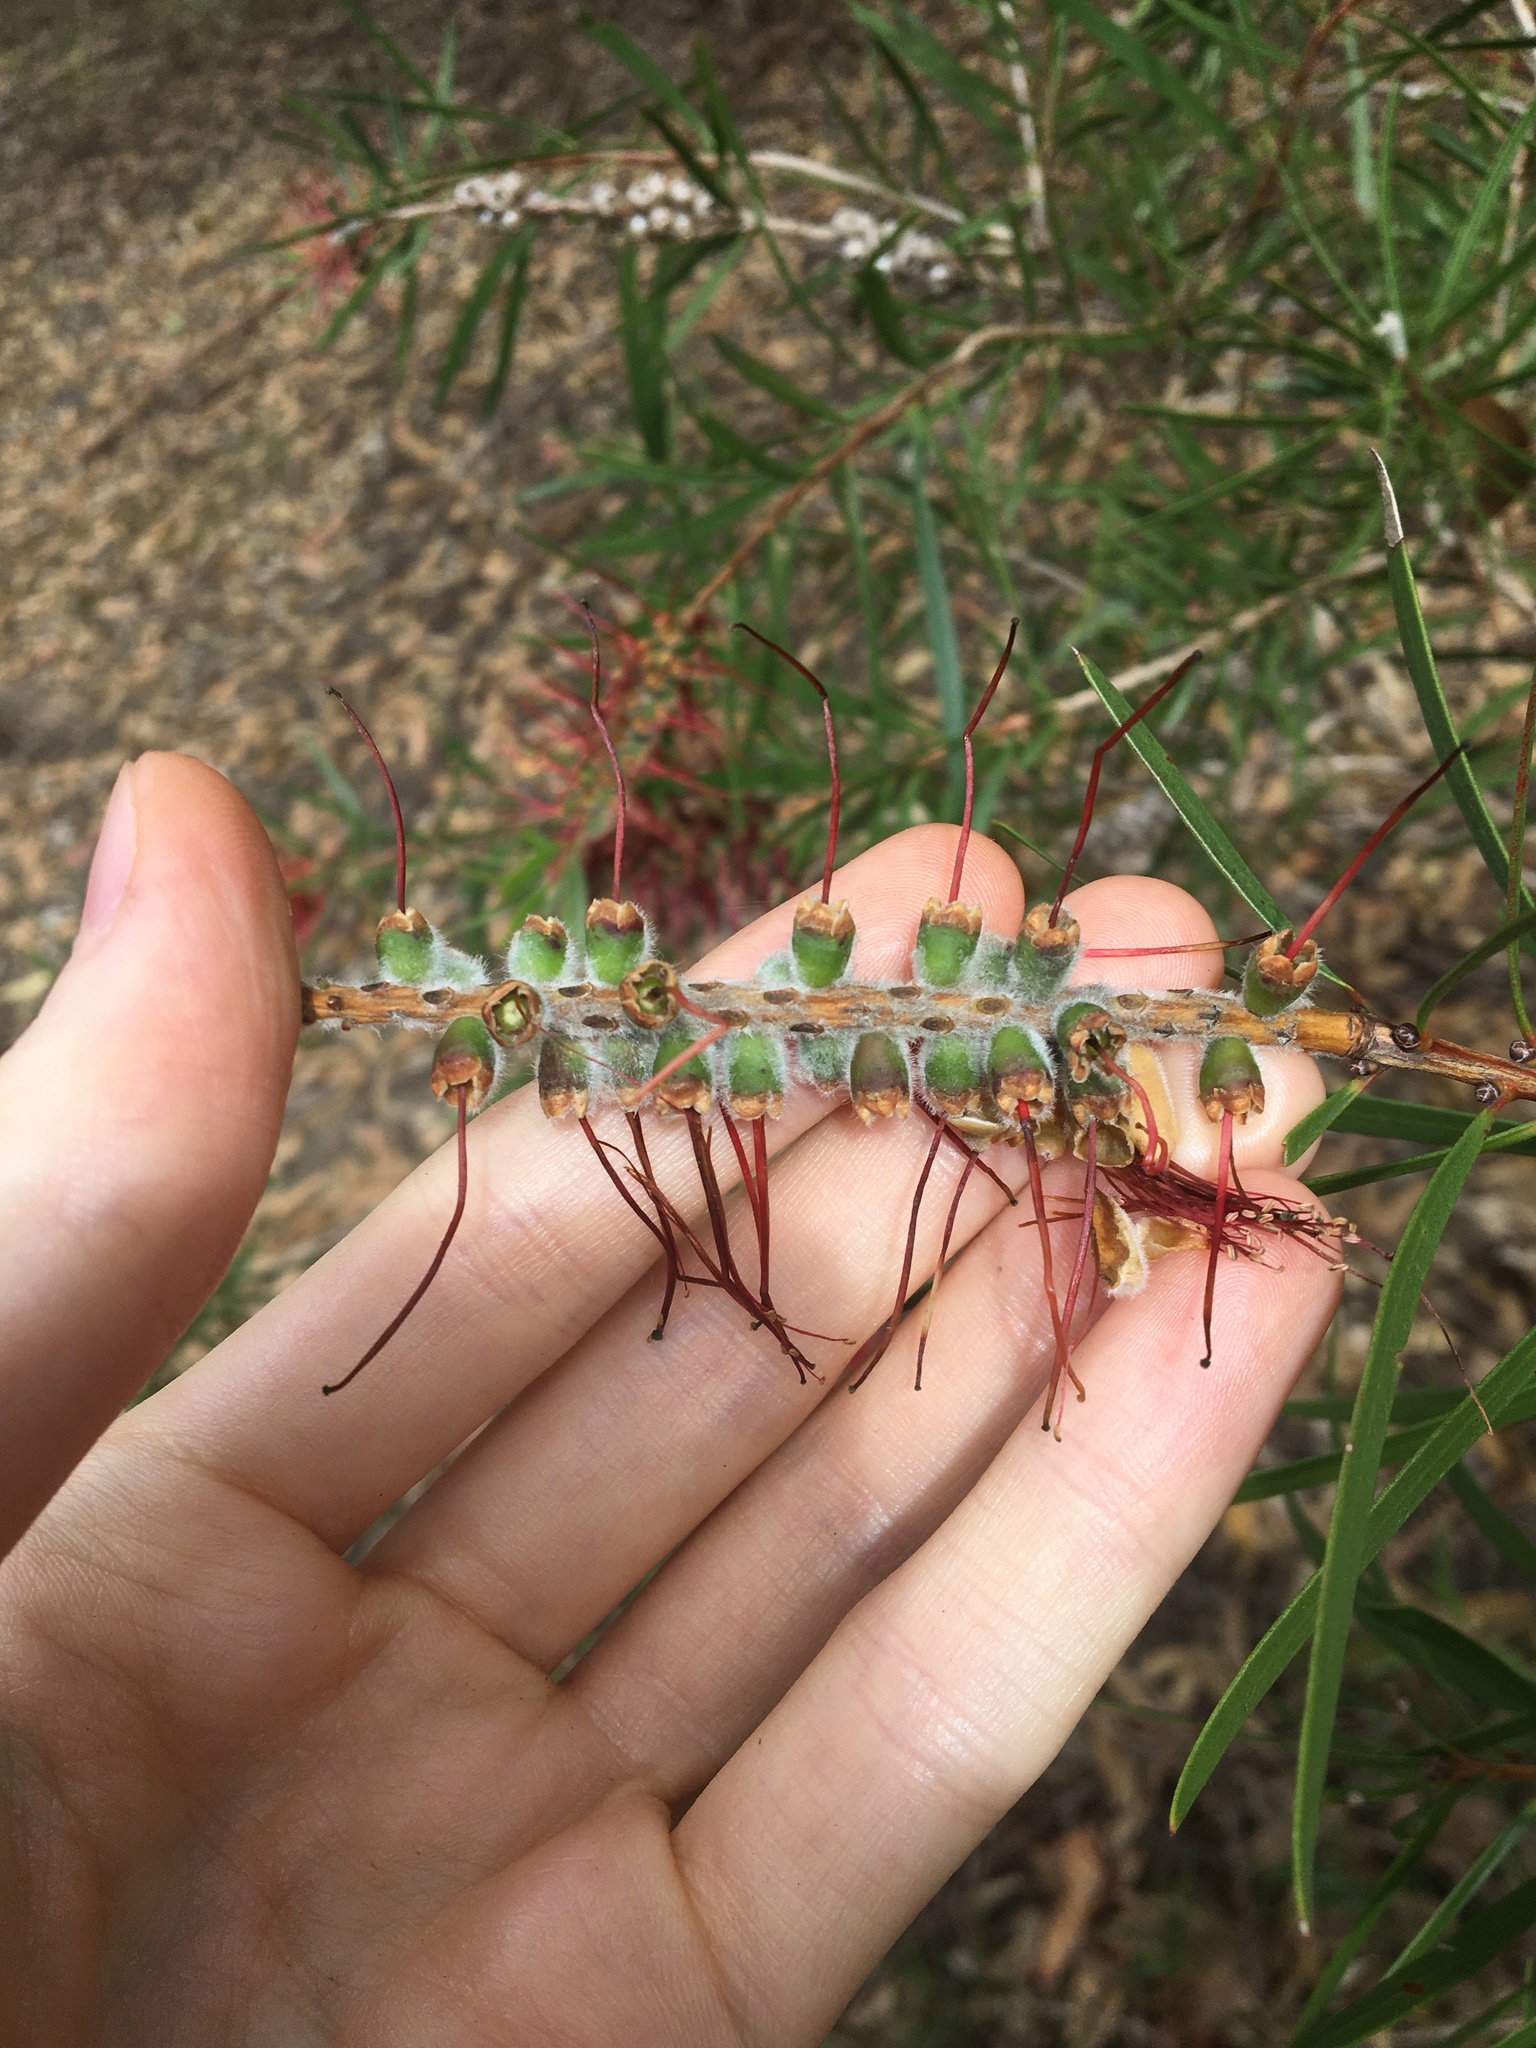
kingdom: Plantae
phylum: Tracheophyta
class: Magnoliopsida
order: Myrtales
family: Myrtaceae
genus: Melaleuca
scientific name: Melaleuca linearifolia
